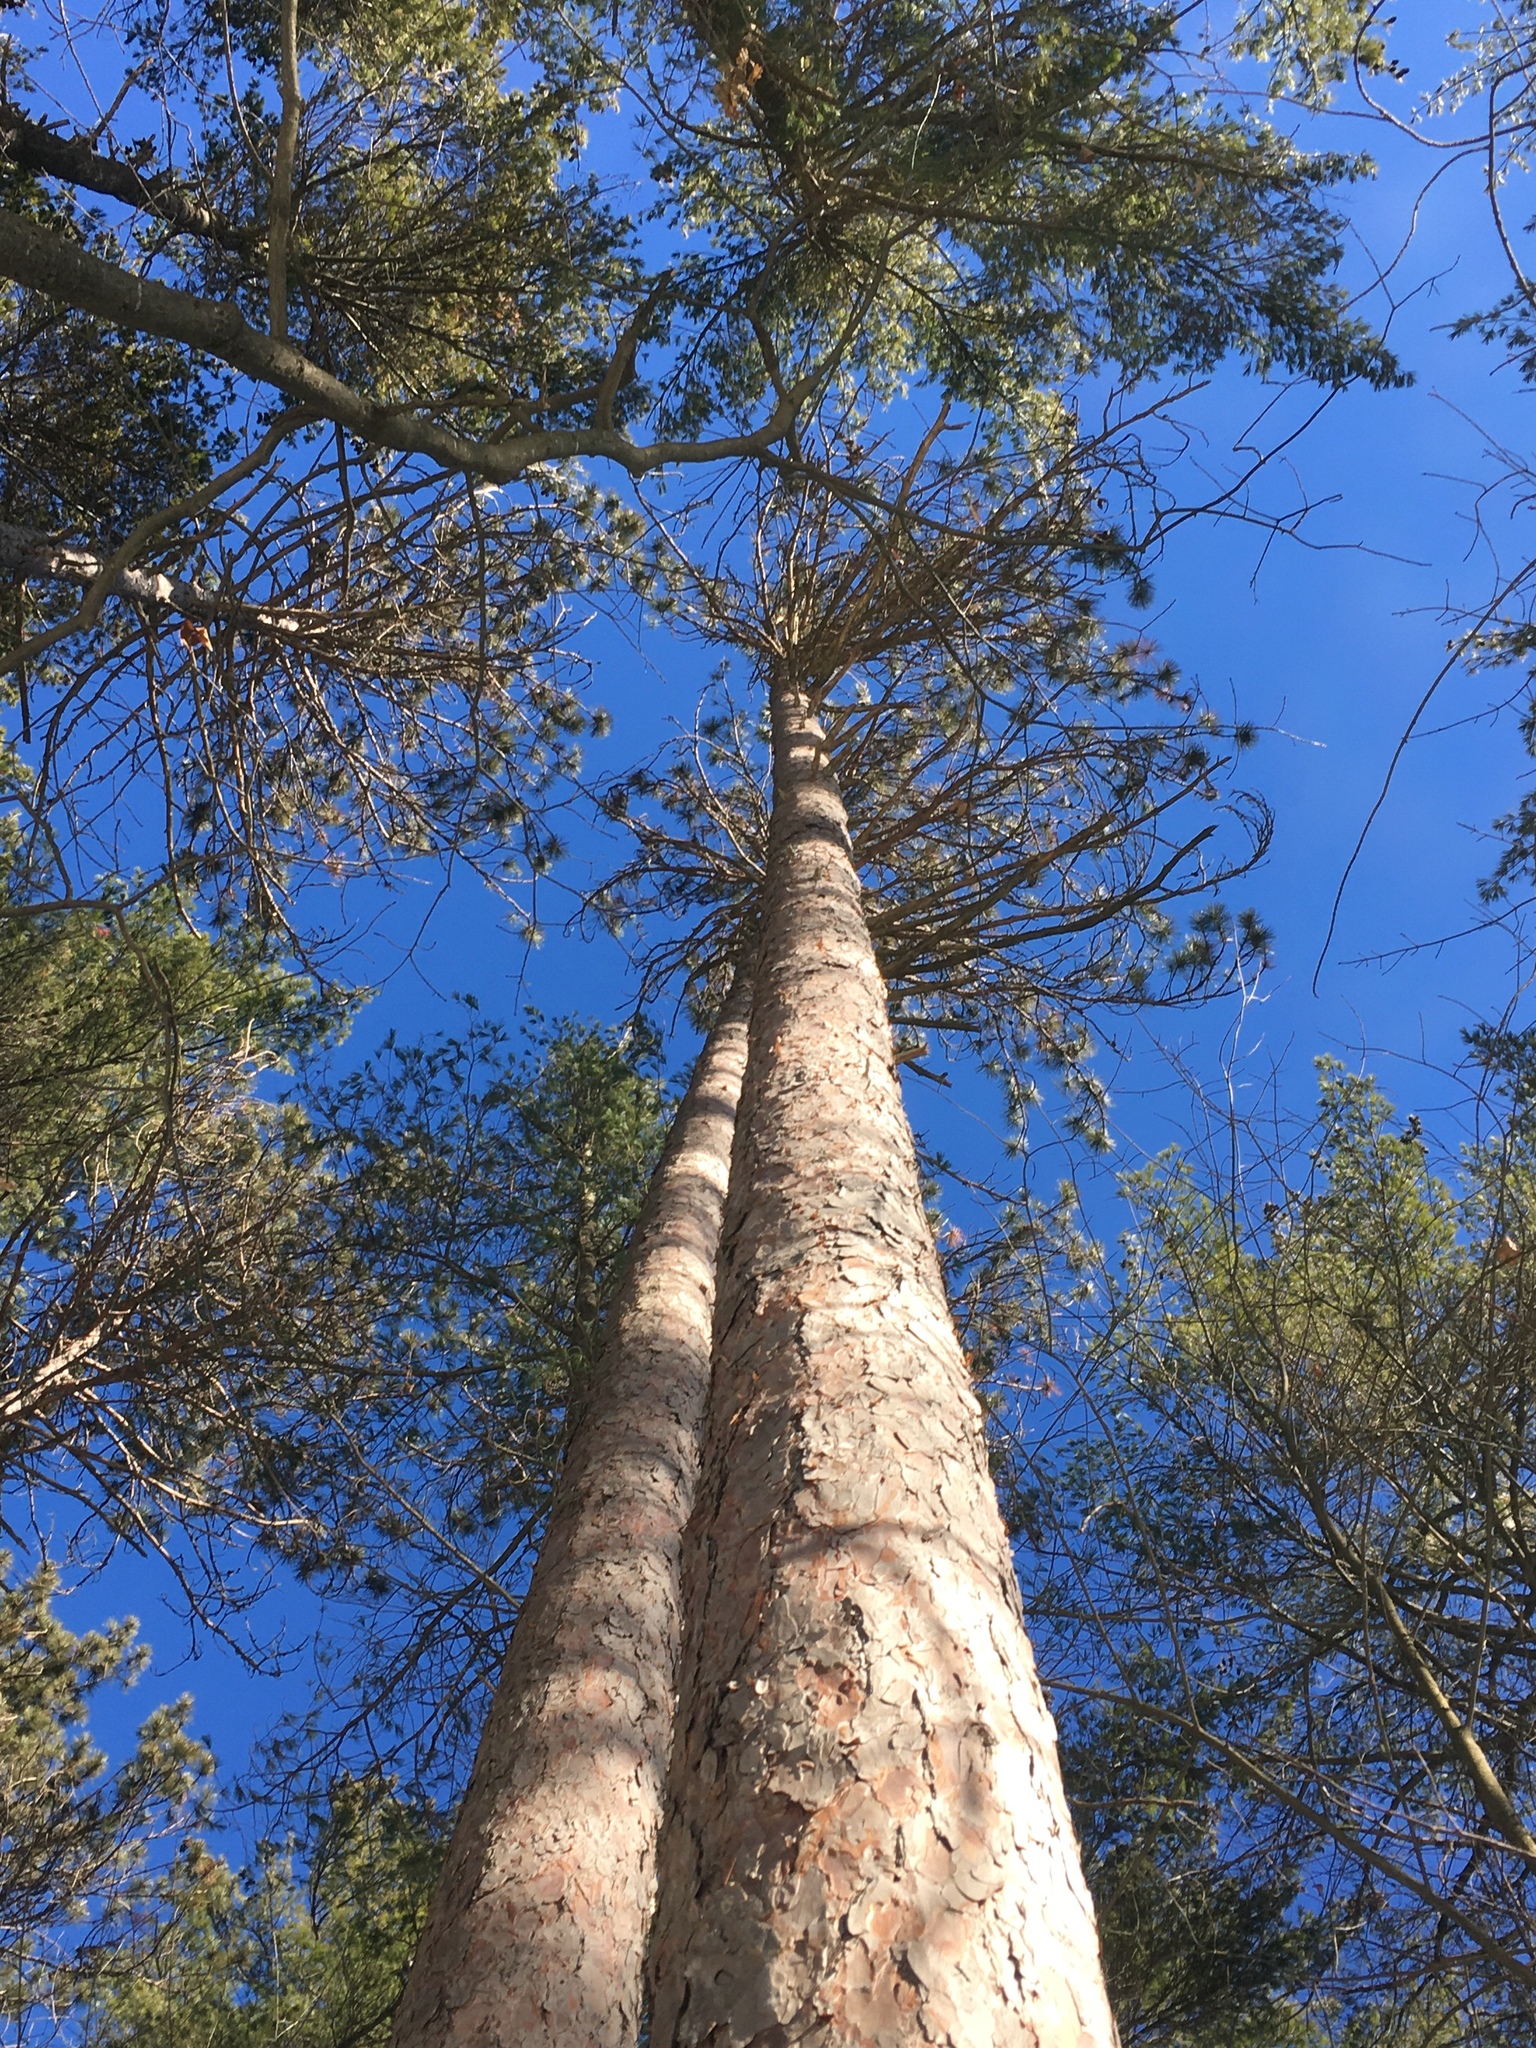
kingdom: Plantae
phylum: Tracheophyta
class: Pinopsida
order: Pinales
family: Pinaceae
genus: Pinus
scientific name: Pinus resinosa
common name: Norway pine
